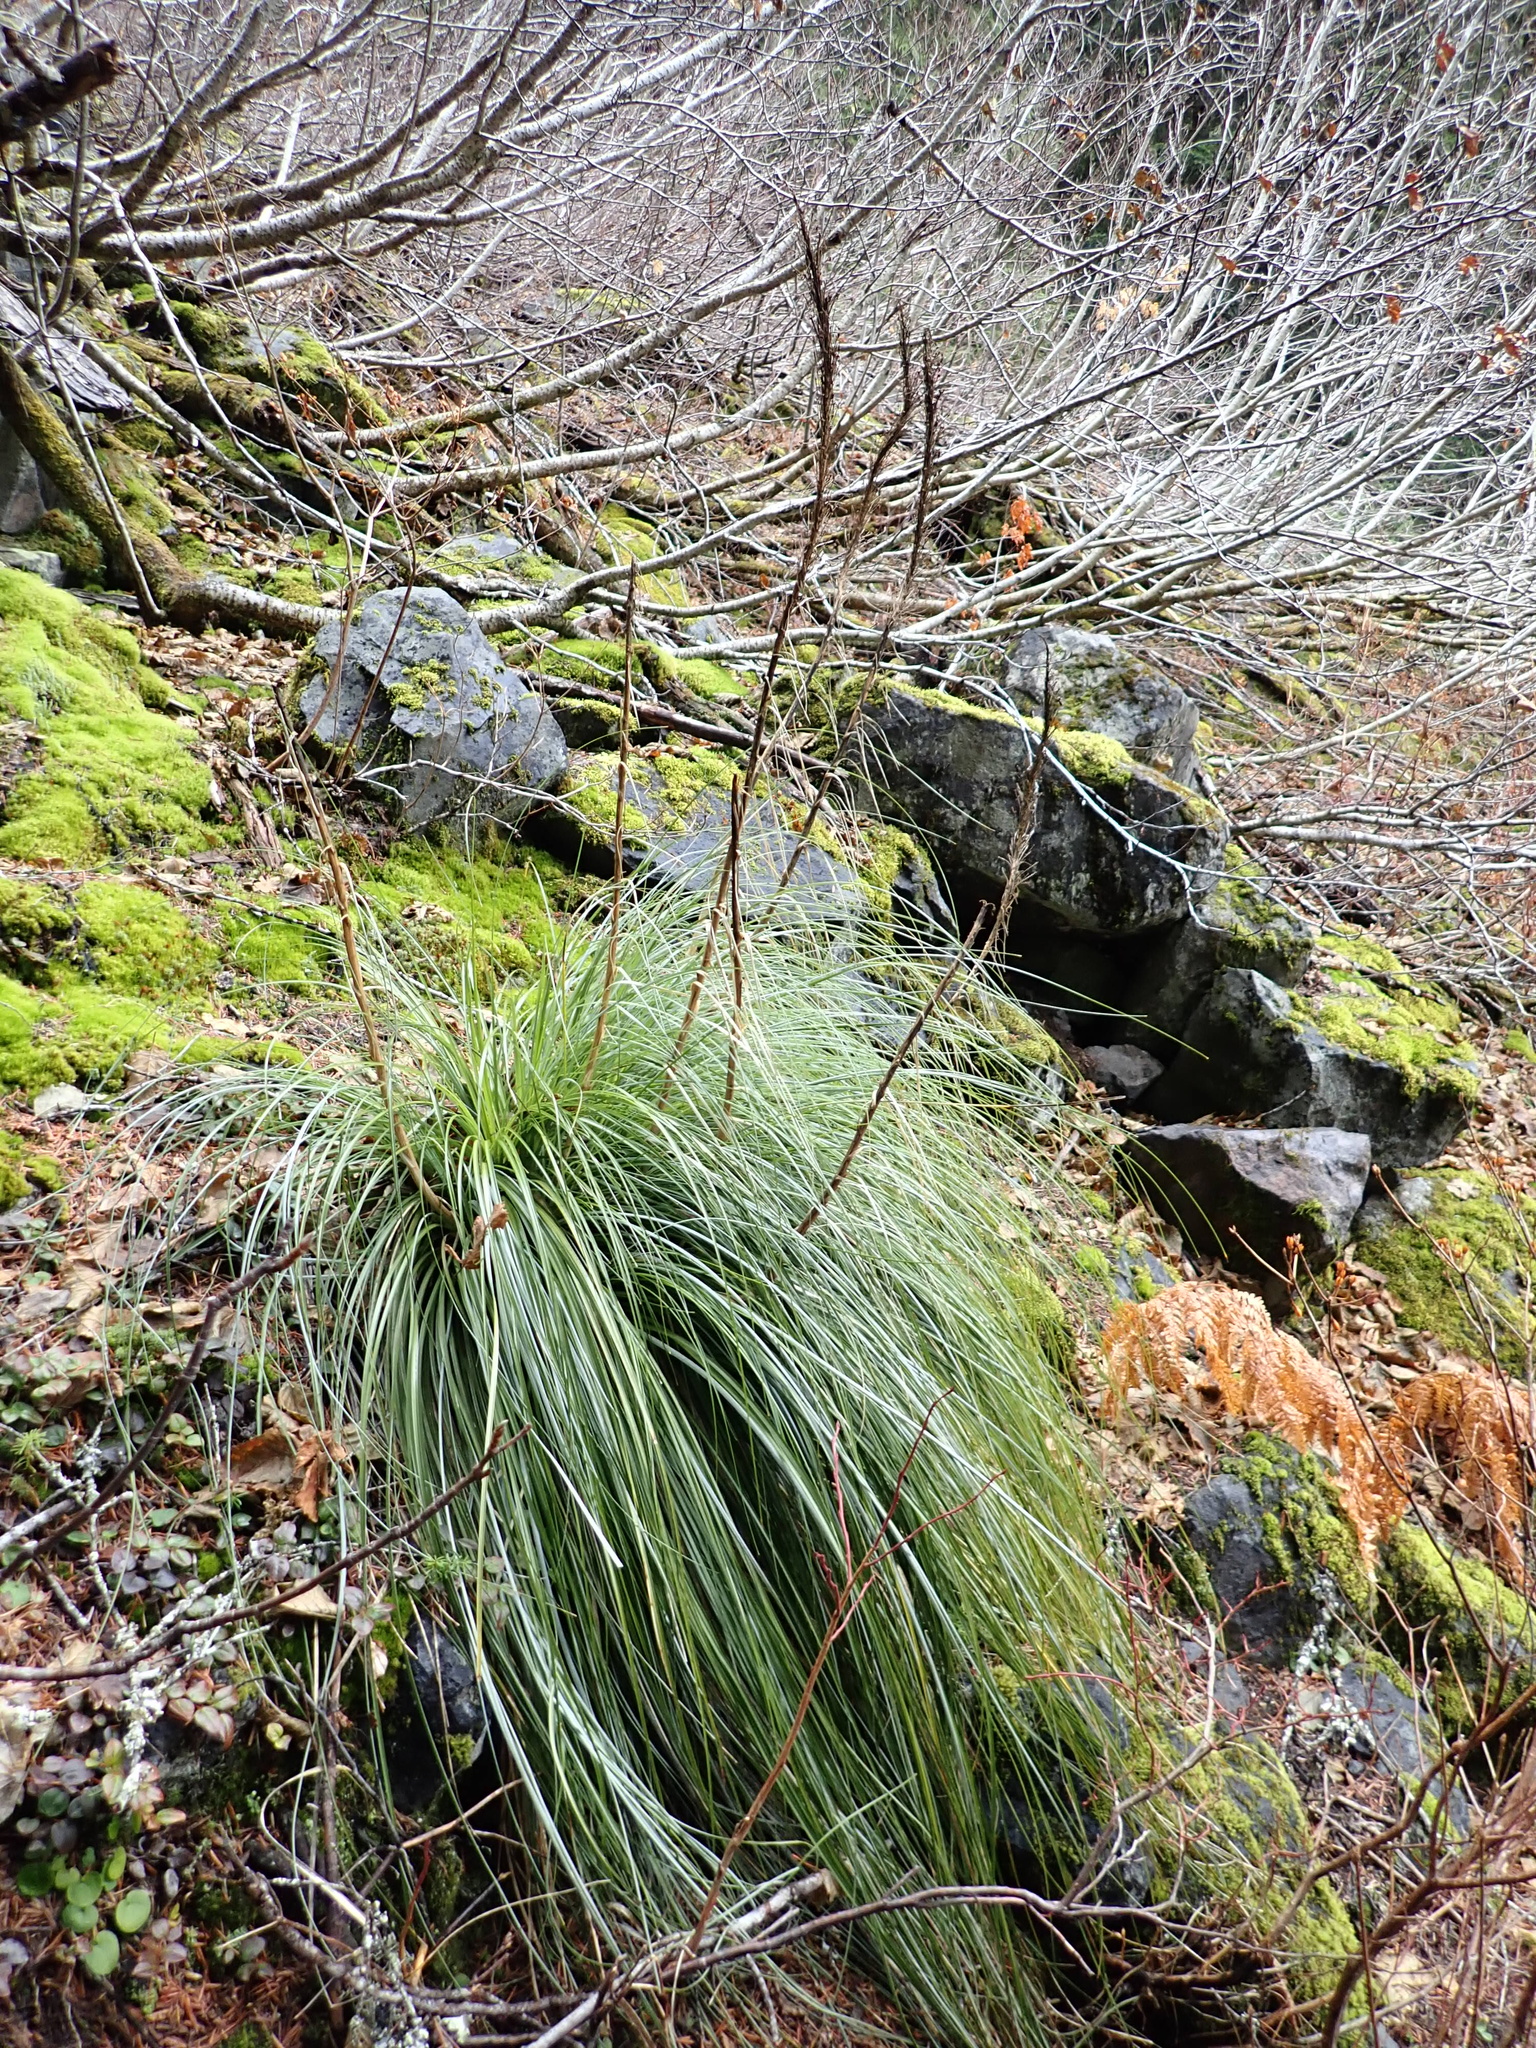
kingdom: Plantae
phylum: Tracheophyta
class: Liliopsida
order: Liliales
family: Melanthiaceae
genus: Xerophyllum
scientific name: Xerophyllum tenax
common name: Bear-grass
